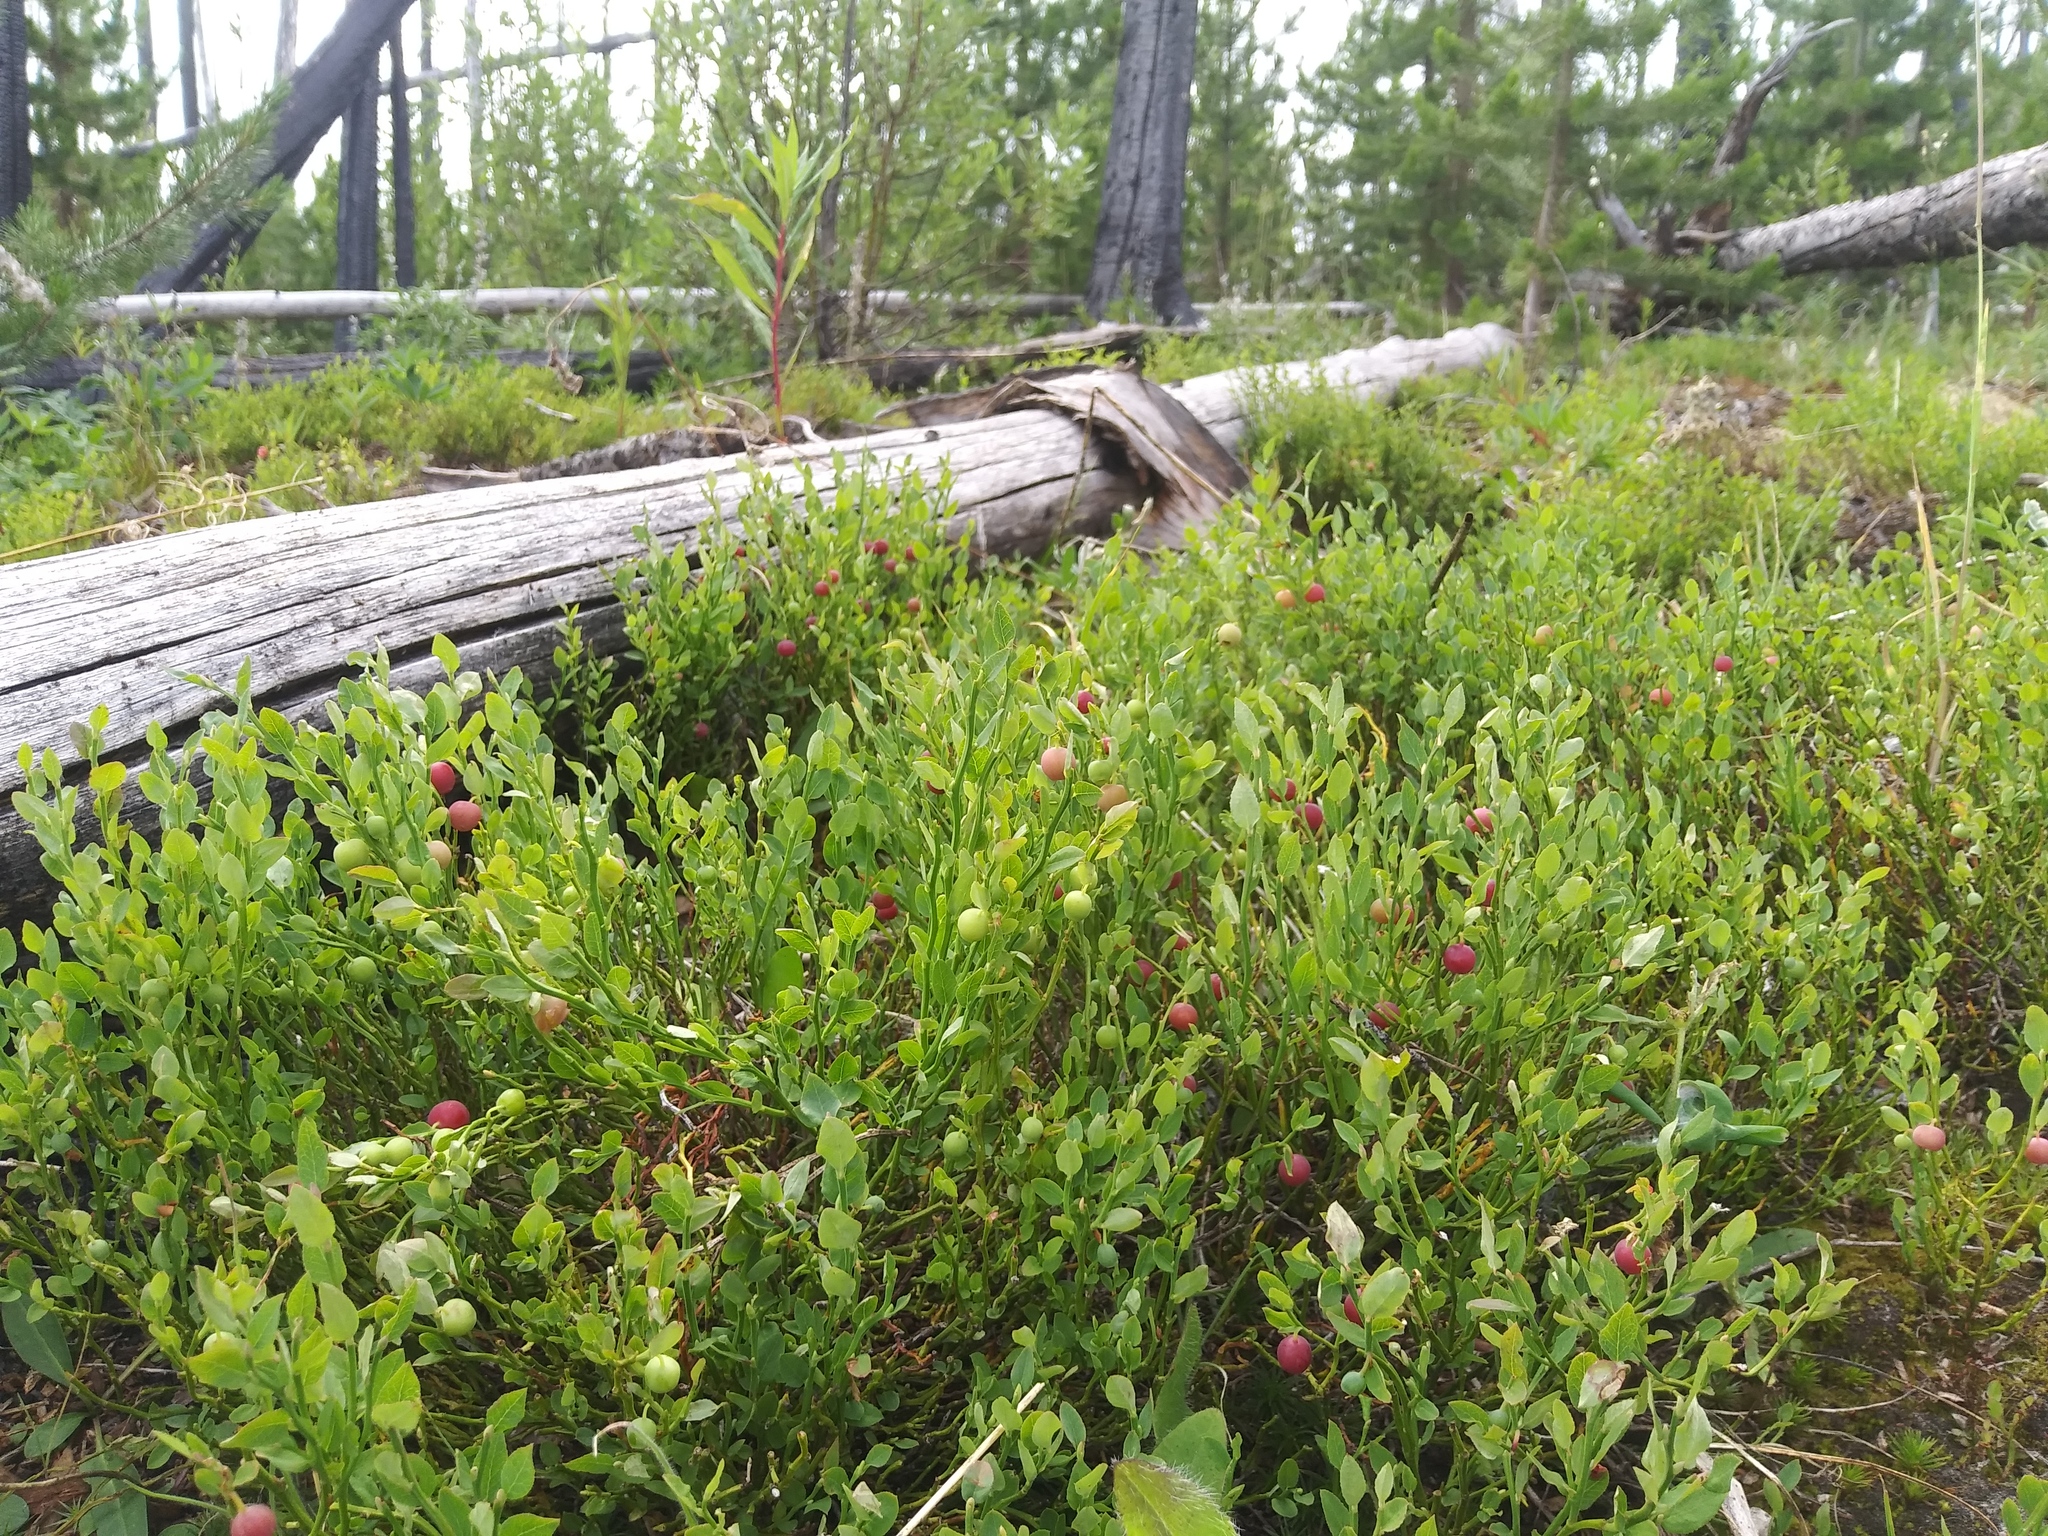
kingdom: Plantae
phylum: Tracheophyta
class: Magnoliopsida
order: Ericales
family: Ericaceae
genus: Vaccinium
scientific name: Vaccinium scoparium
